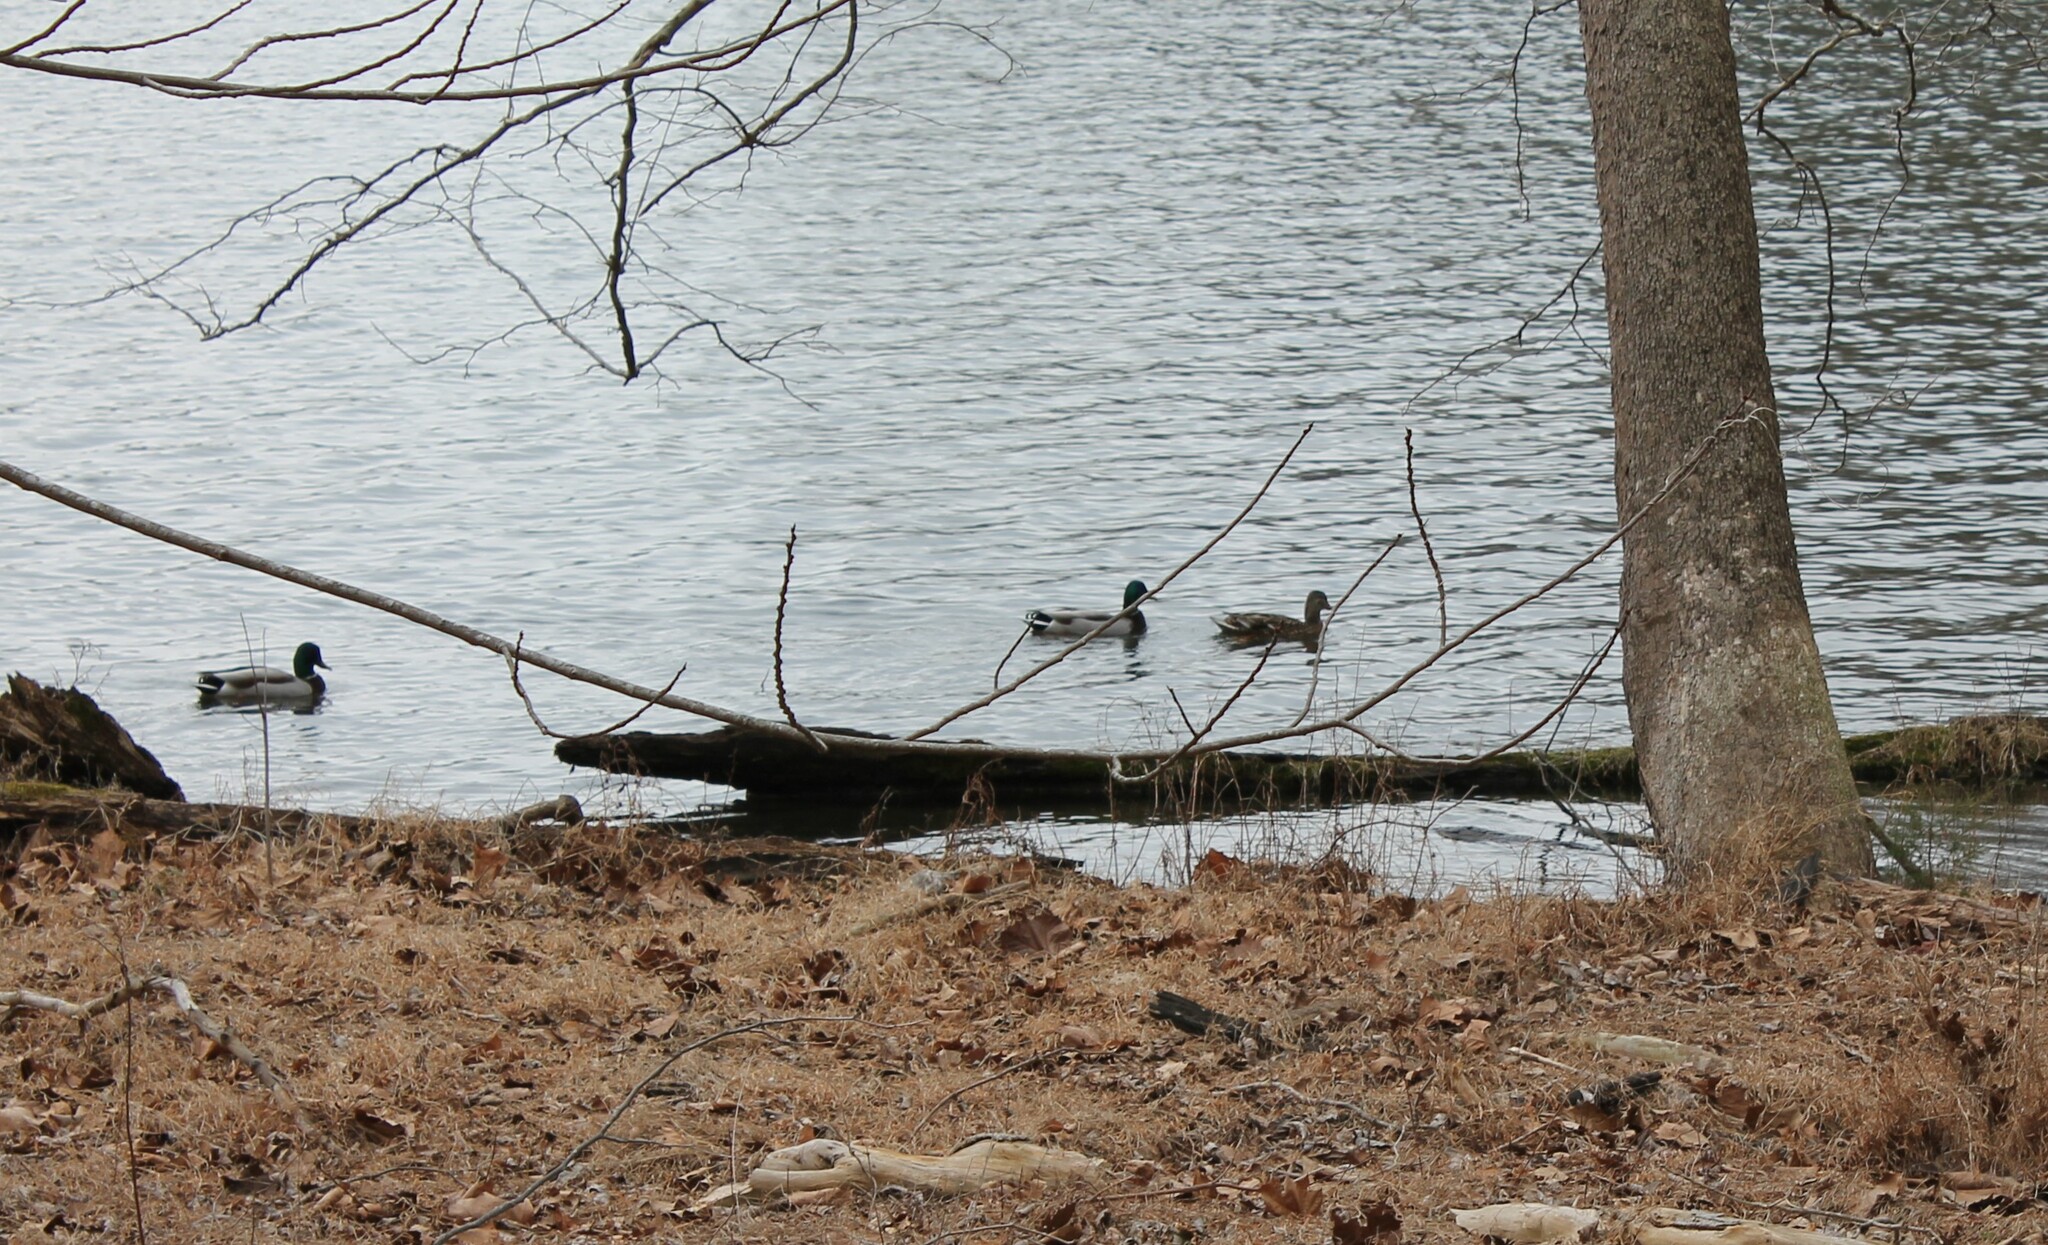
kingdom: Animalia
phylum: Chordata
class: Aves
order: Anseriformes
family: Anatidae
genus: Anas
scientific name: Anas platyrhynchos
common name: Mallard
